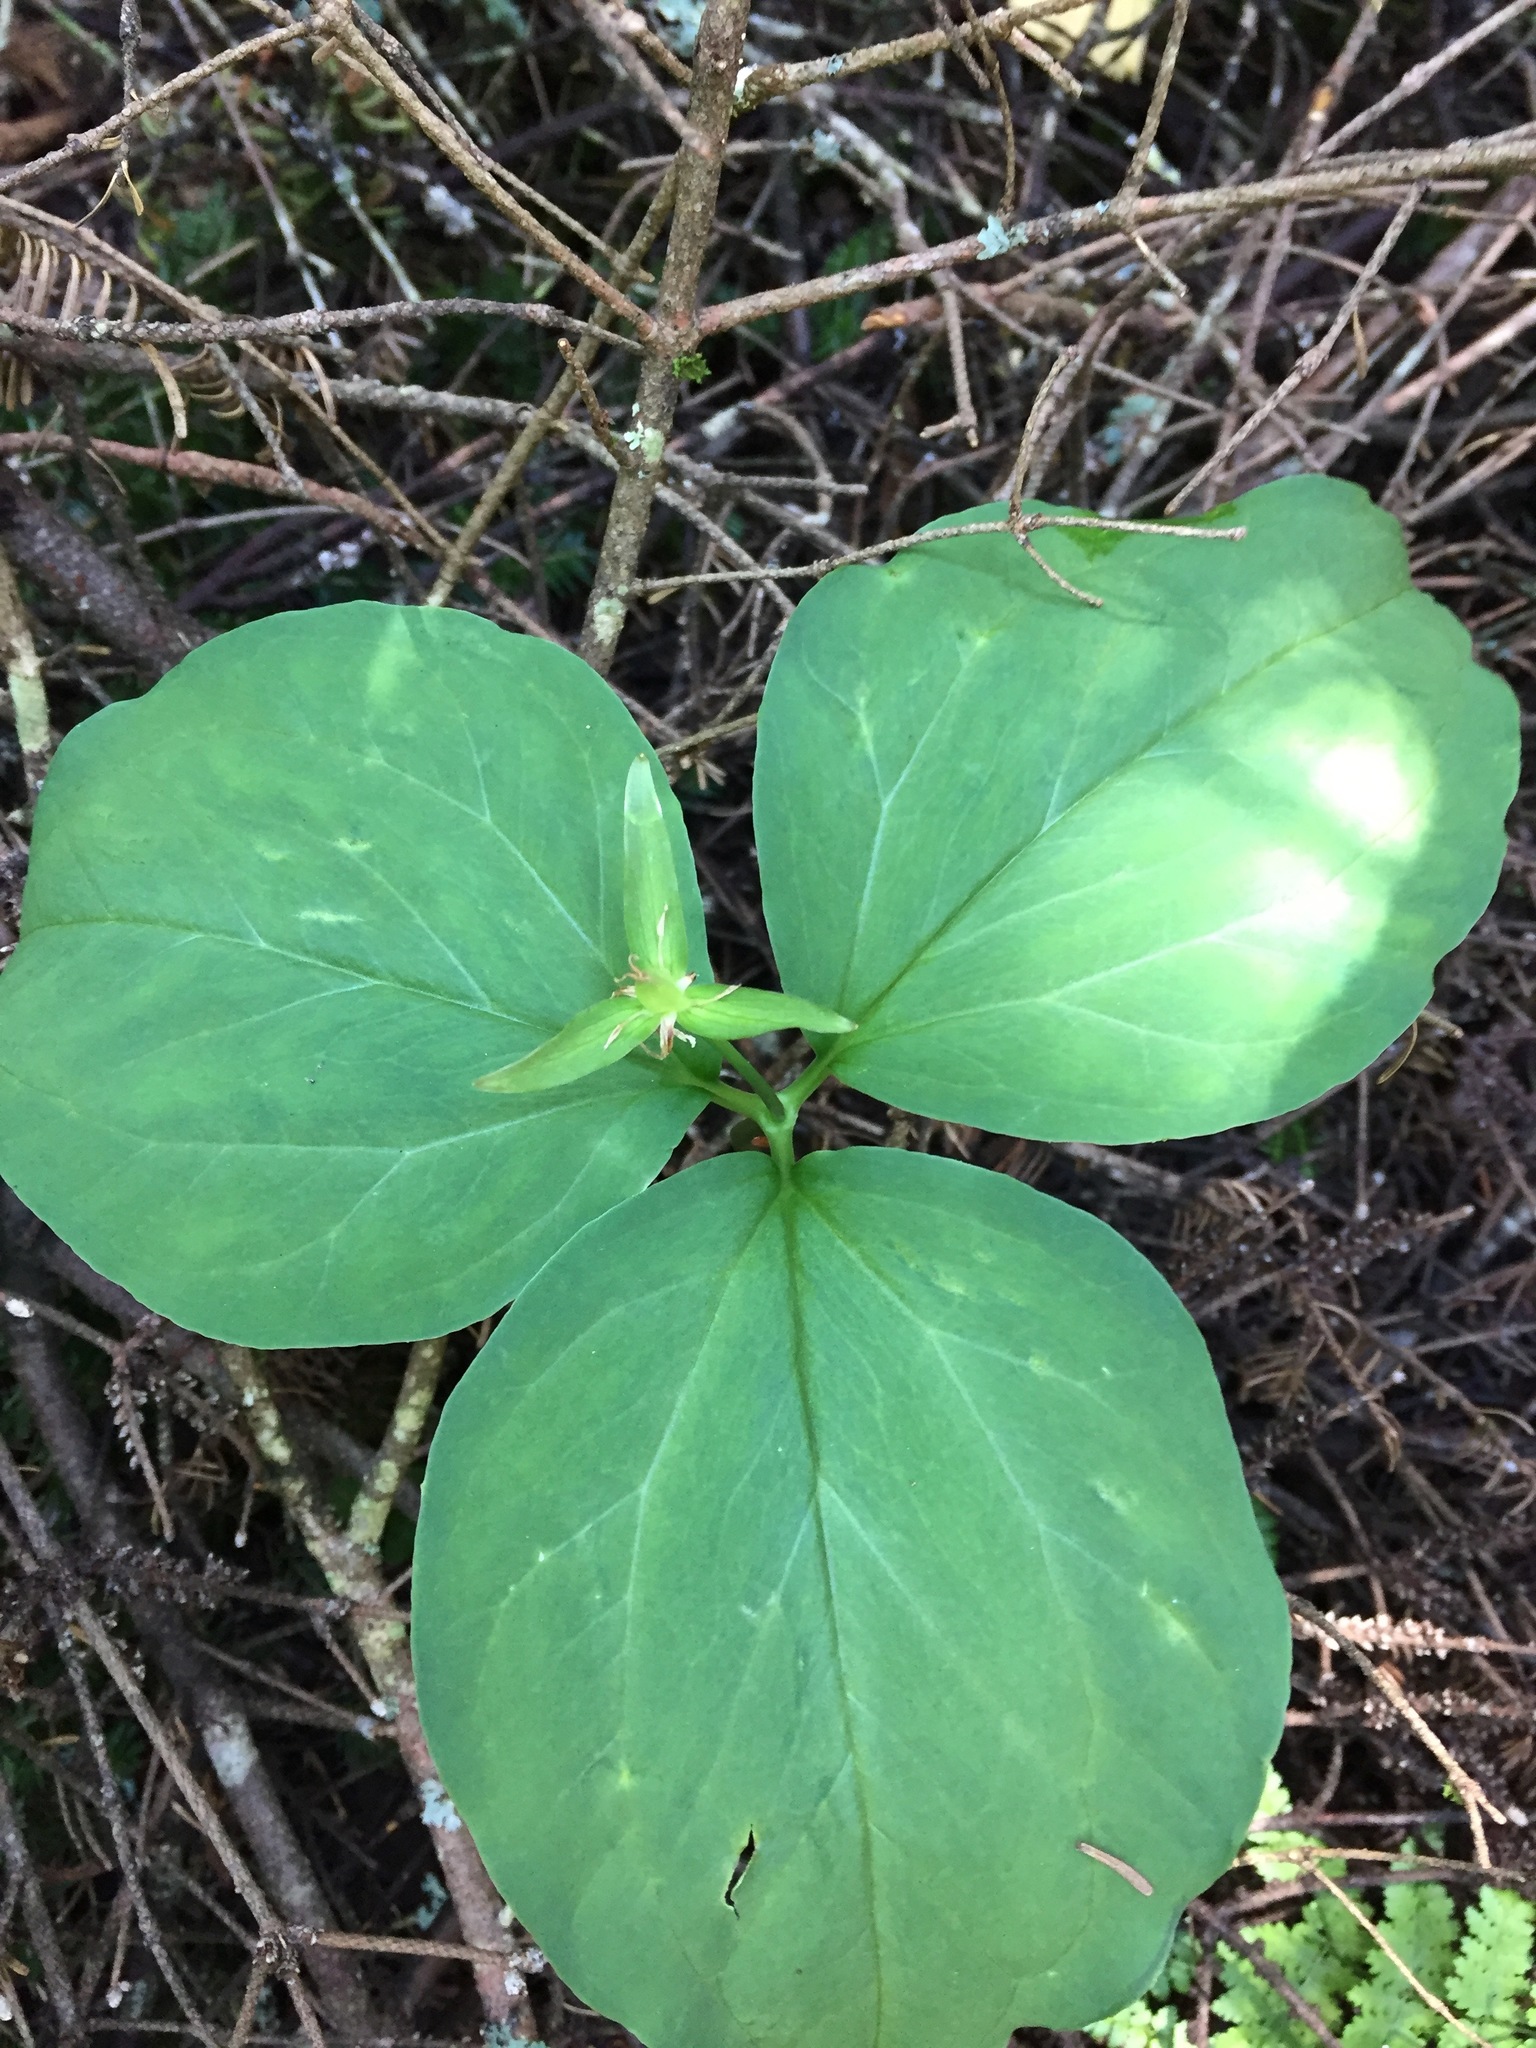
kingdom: Plantae
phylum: Tracheophyta
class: Liliopsida
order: Liliales
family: Melanthiaceae
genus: Trillium
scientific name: Trillium undulatum
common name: Paint trillium
